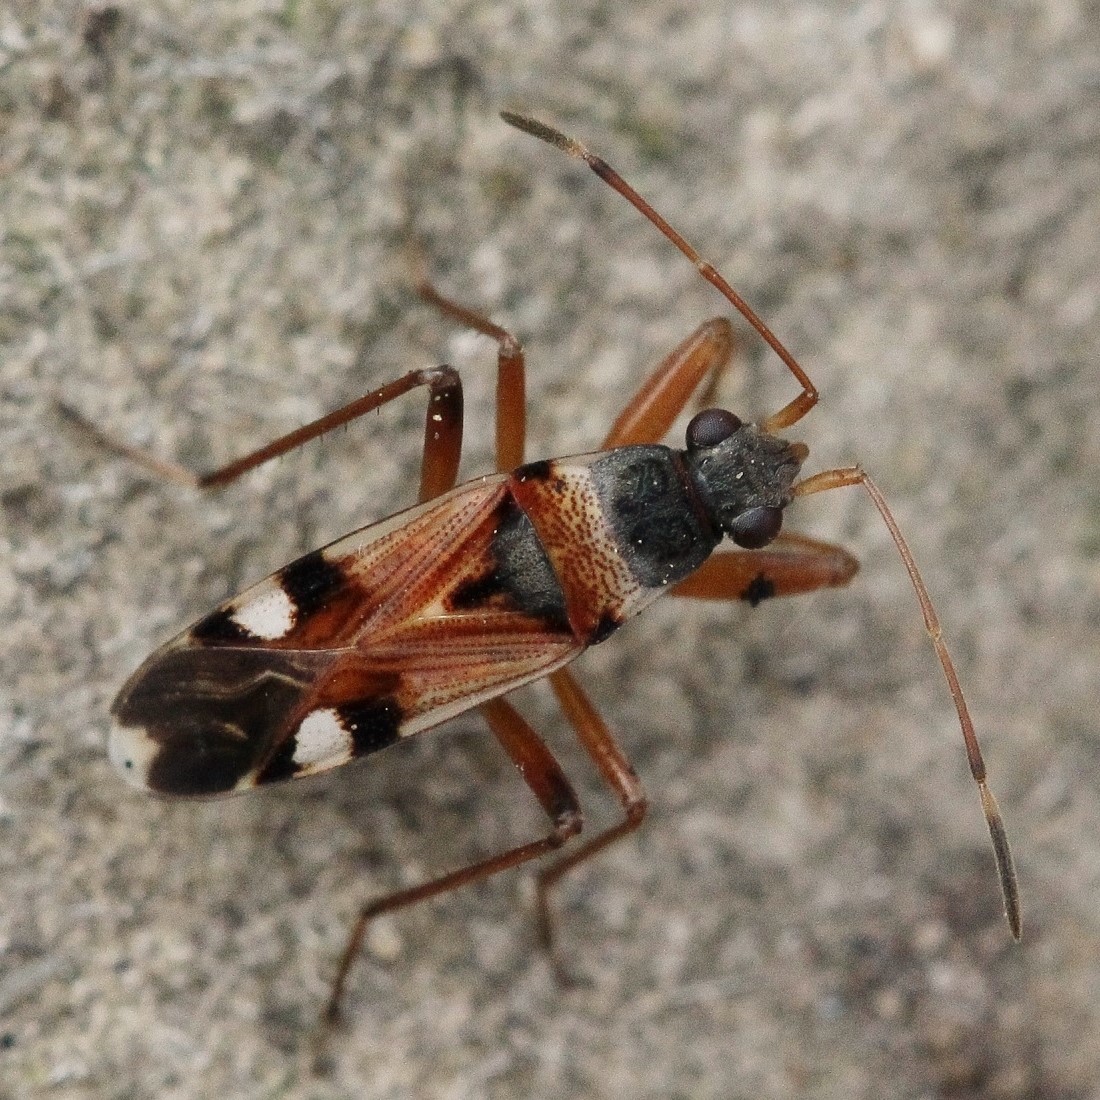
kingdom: Animalia
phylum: Arthropoda
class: Insecta
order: Hemiptera
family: Rhyparochromidae
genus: Beosus
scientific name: Beosus quadripunctatus
